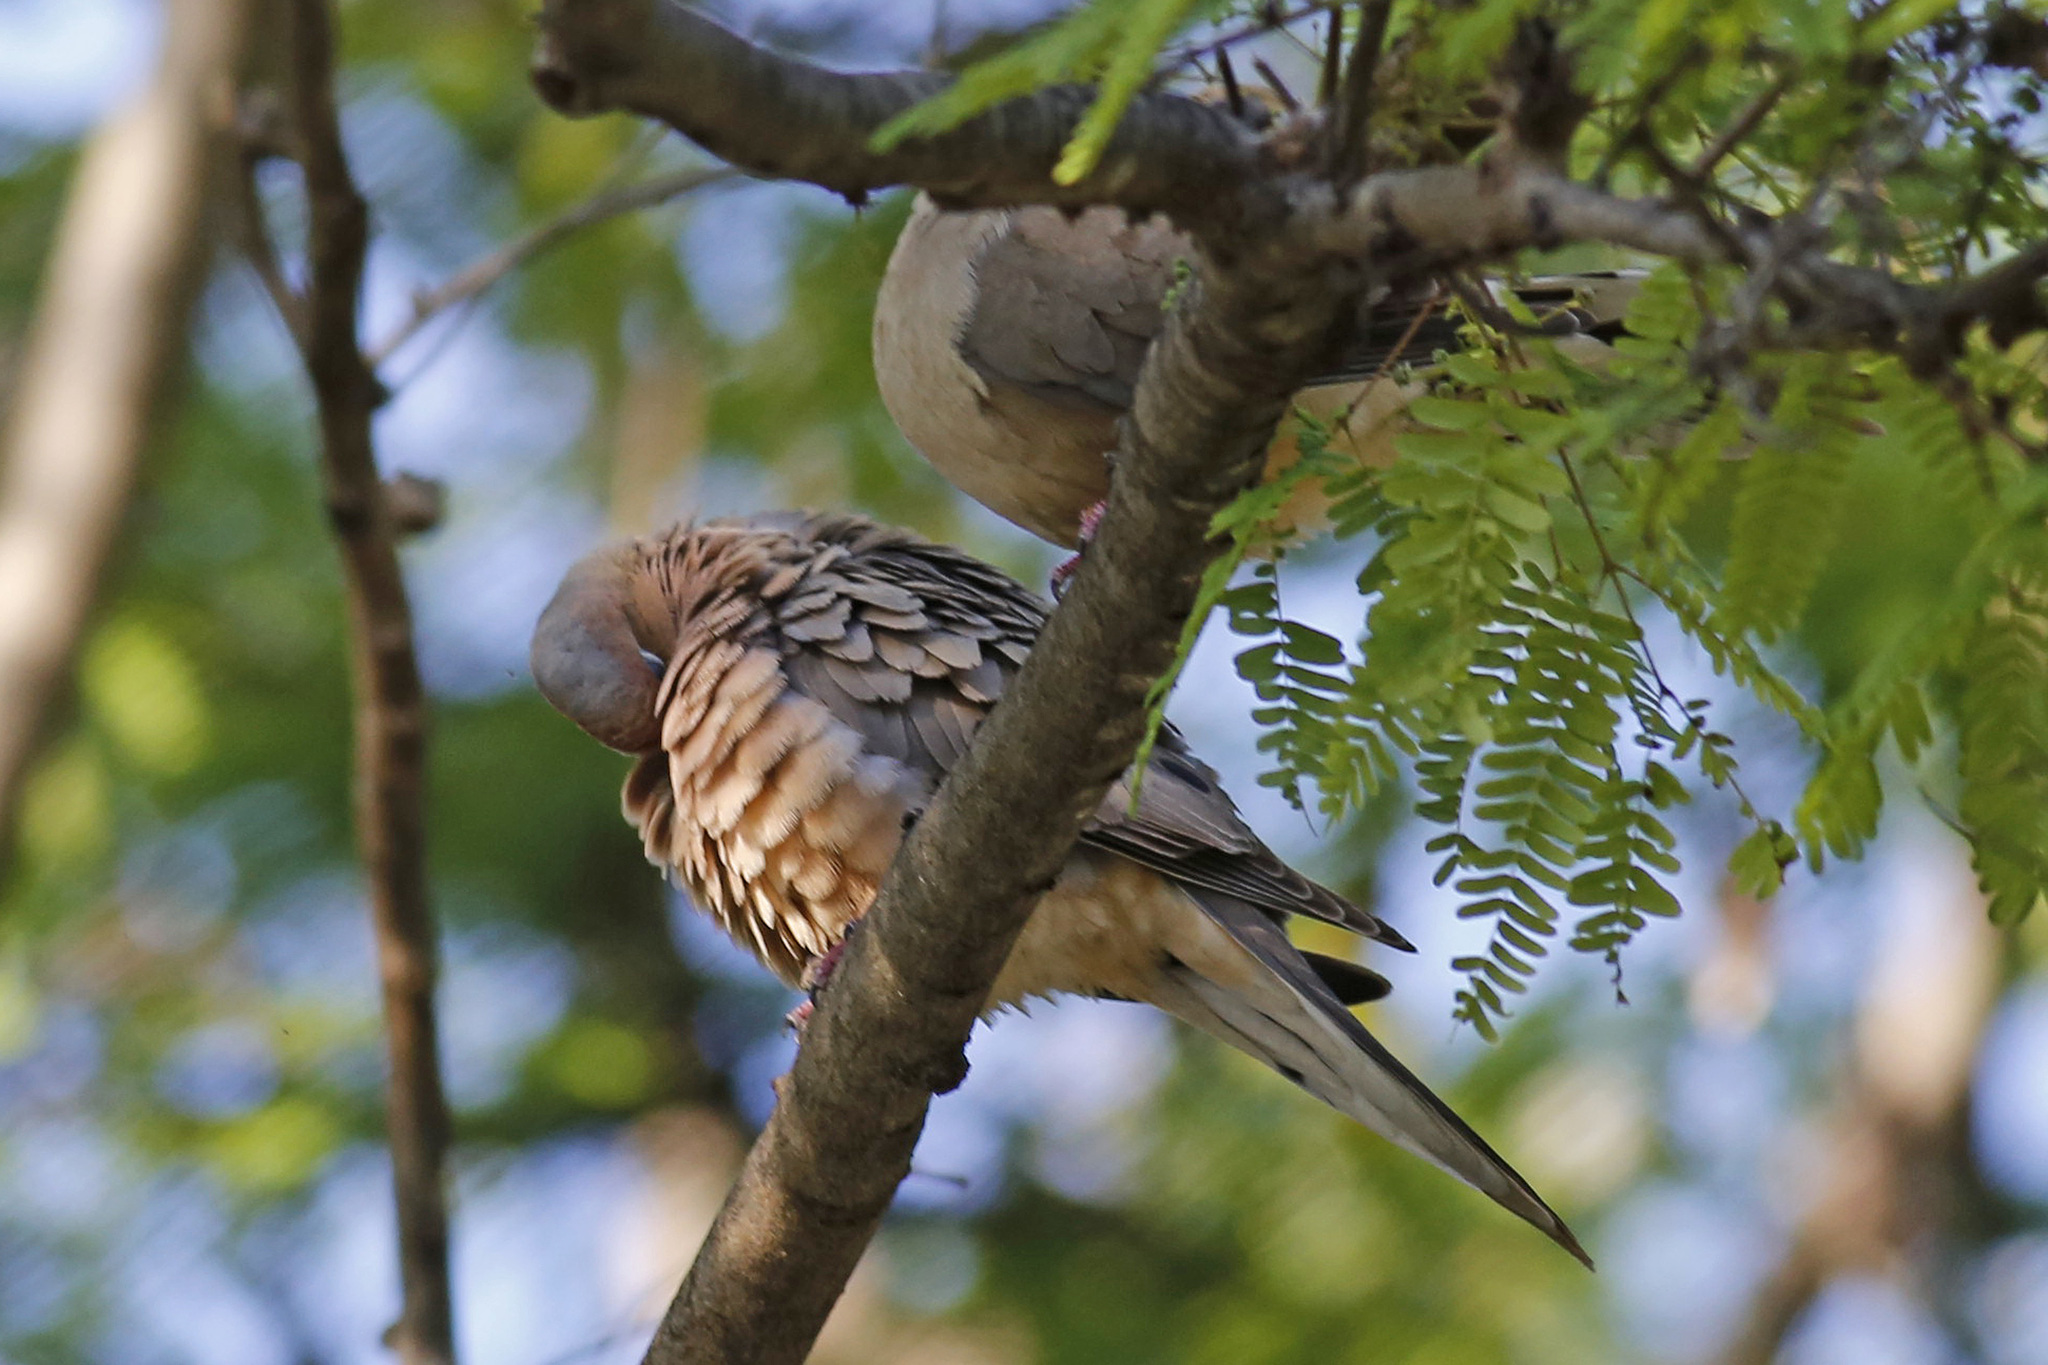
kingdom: Animalia
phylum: Chordata
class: Aves
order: Columbiformes
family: Columbidae
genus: Zenaida
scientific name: Zenaida macroura
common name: Mourning dove
